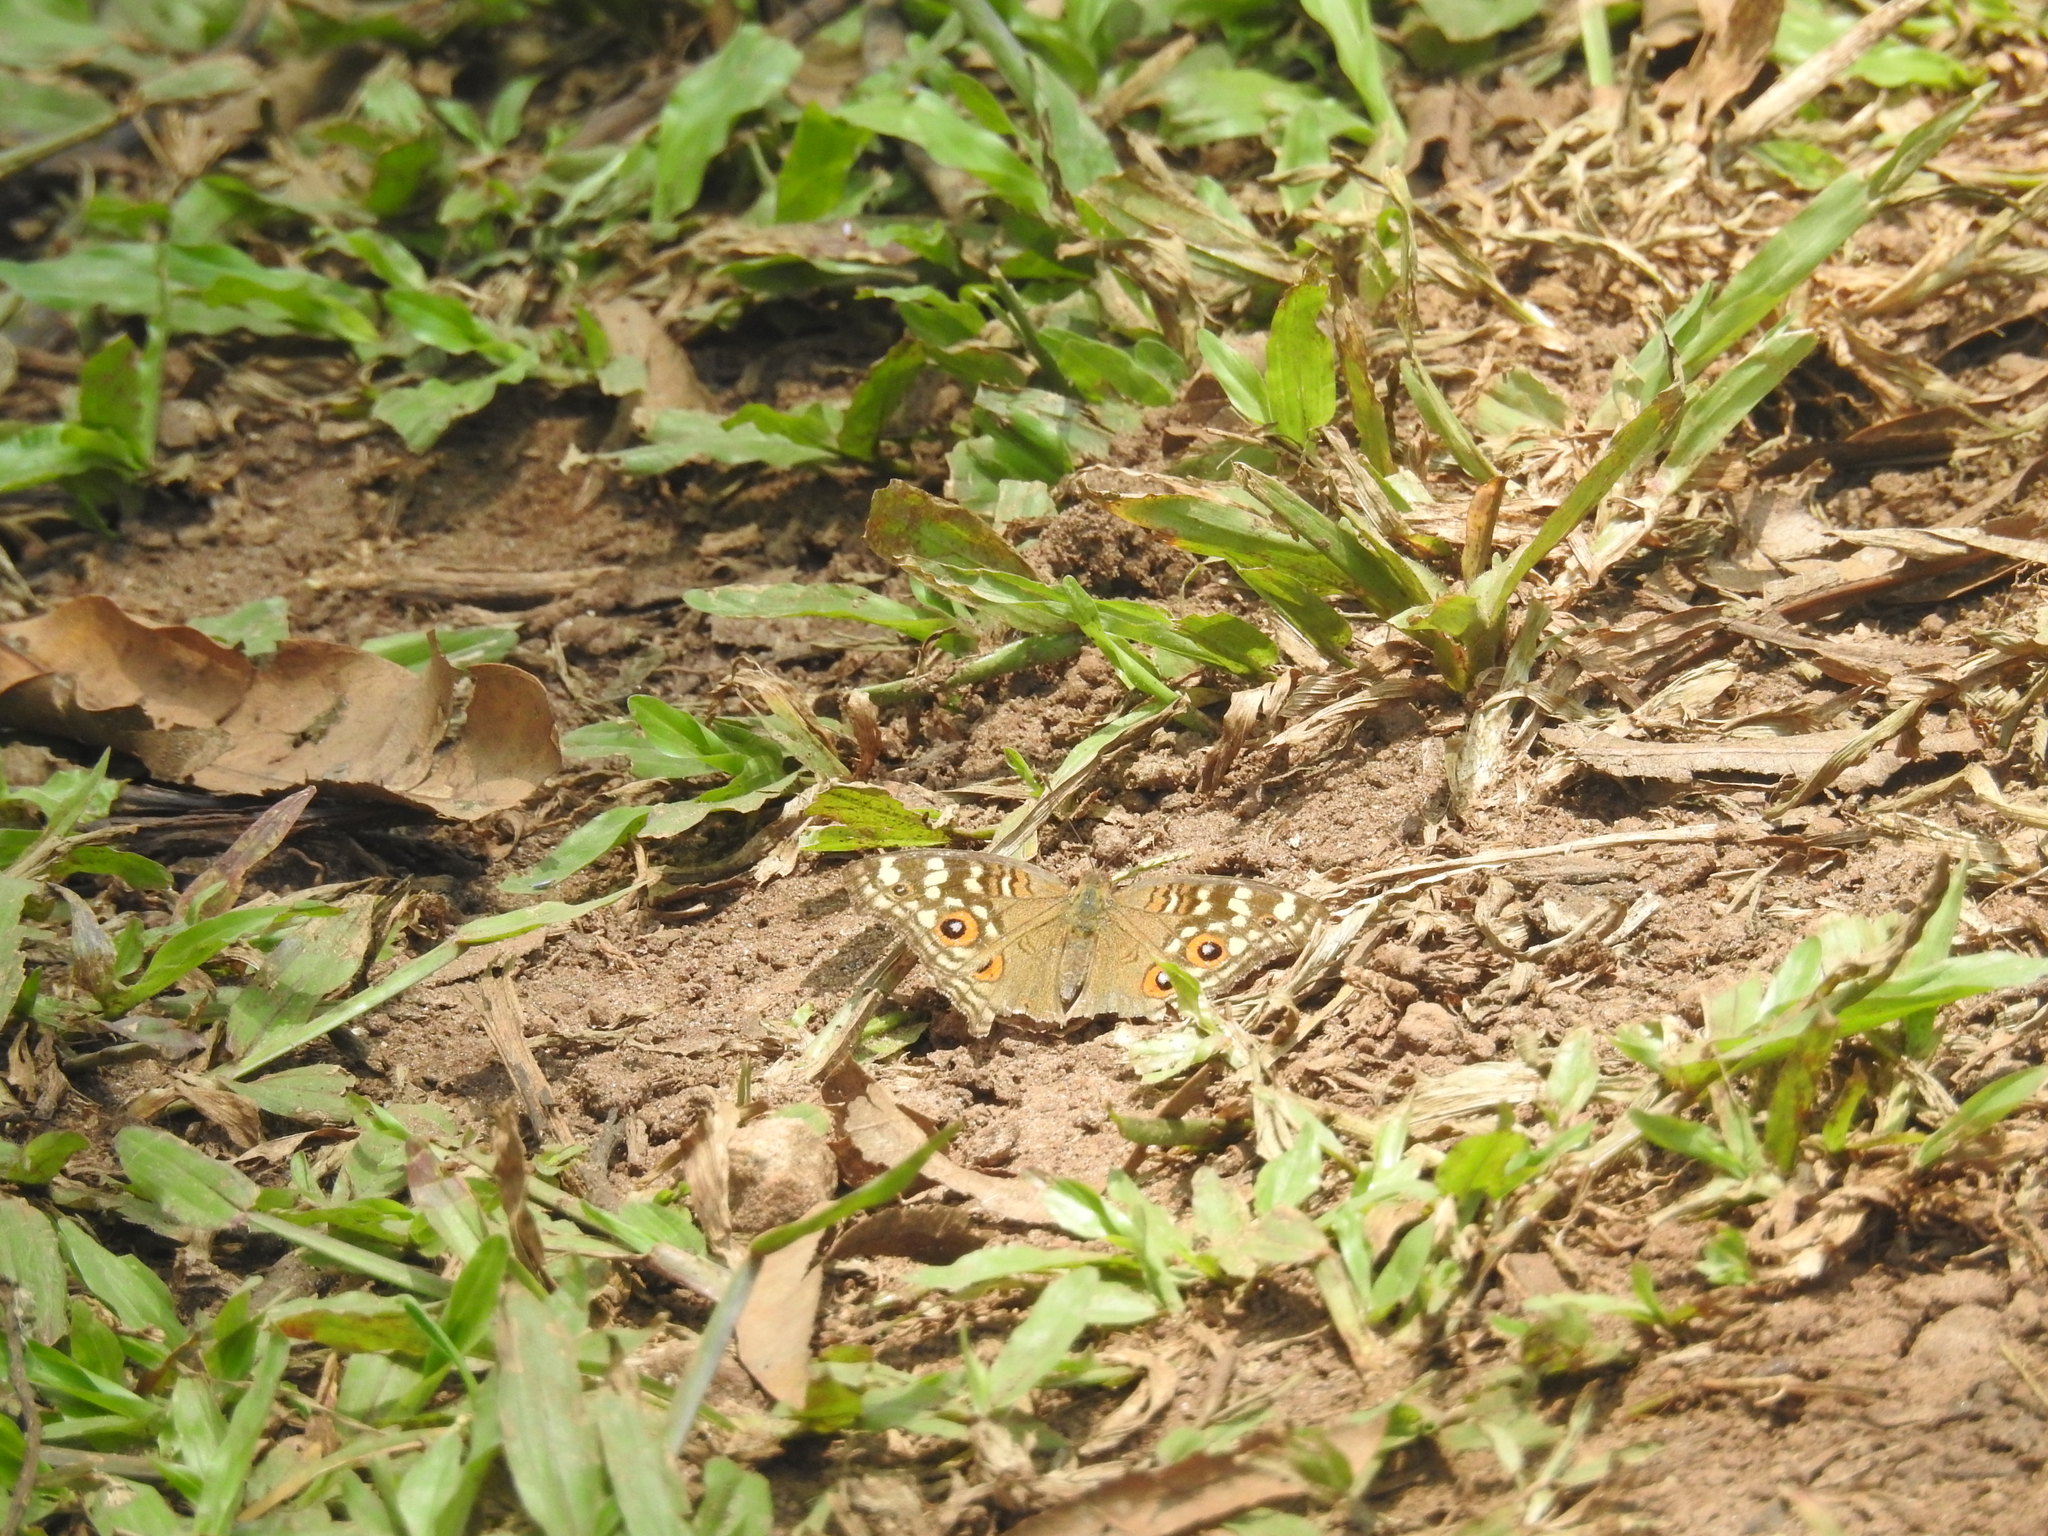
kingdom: Animalia
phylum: Arthropoda
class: Insecta
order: Lepidoptera
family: Nymphalidae
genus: Junonia
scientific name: Junonia lemonias
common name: Lemon pansy
